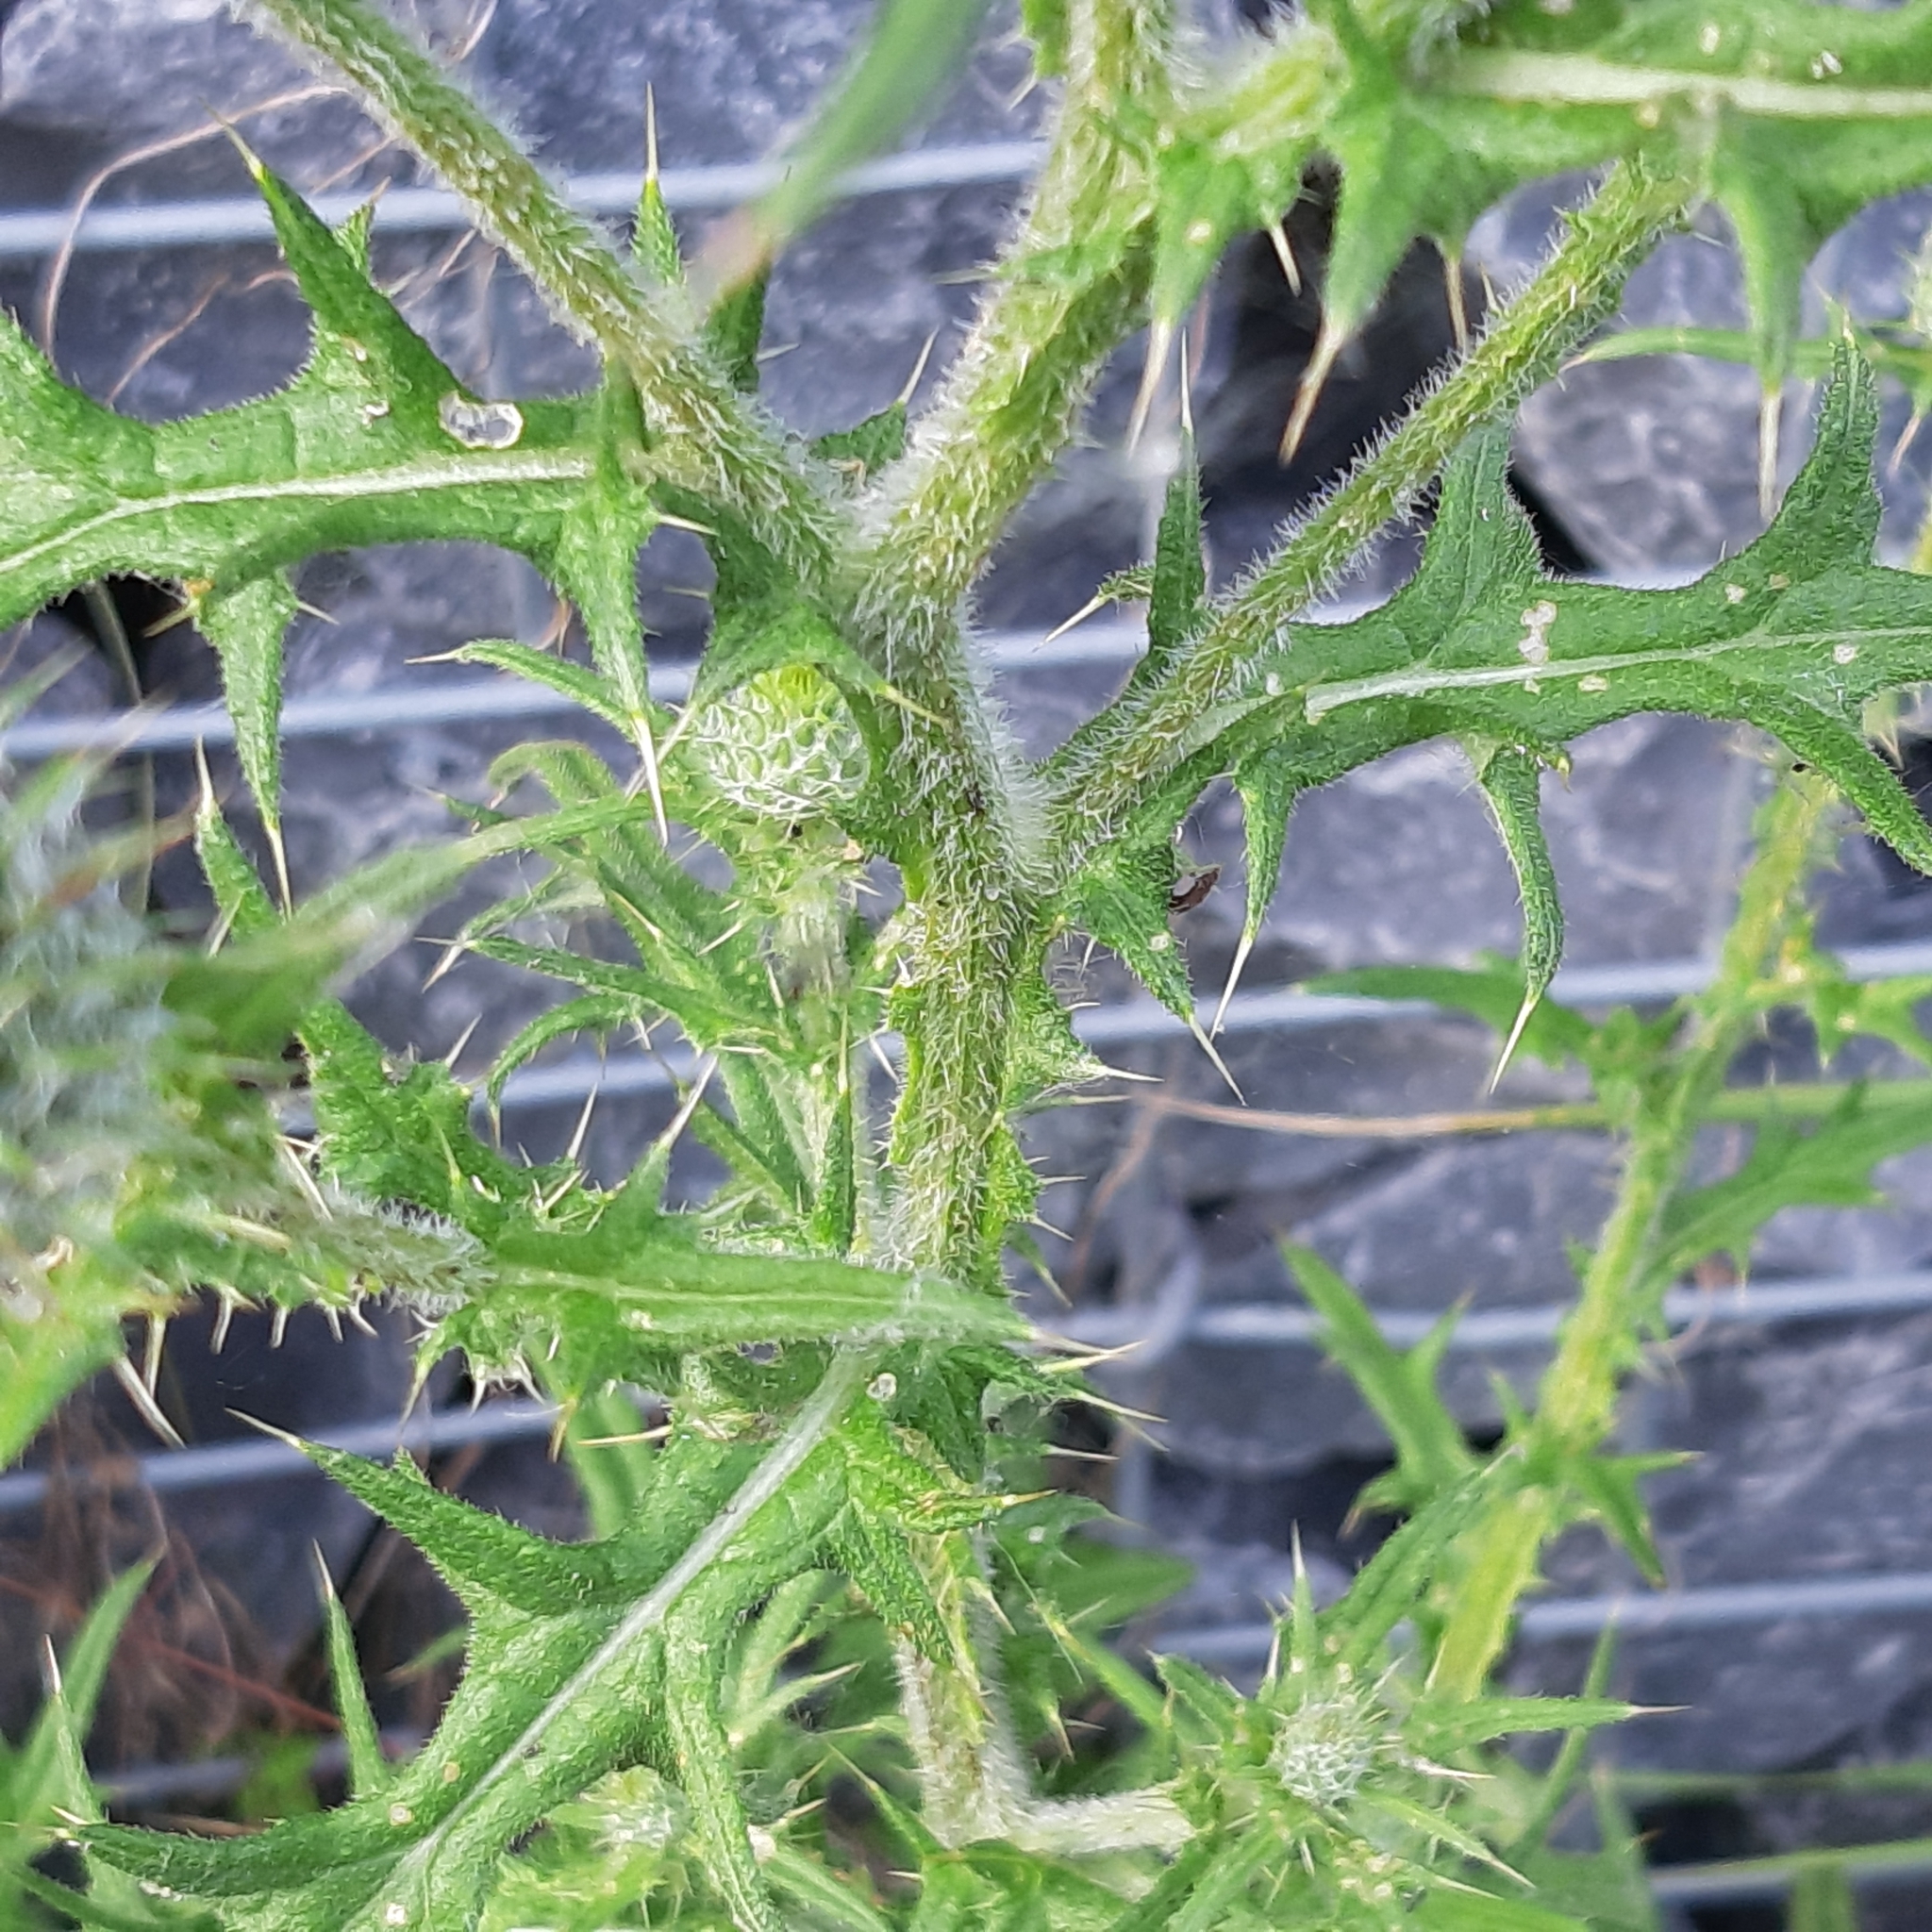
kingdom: Plantae
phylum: Tracheophyta
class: Magnoliopsida
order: Asterales
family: Asteraceae
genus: Cirsium
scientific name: Cirsium vulgare
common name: Bull thistle
